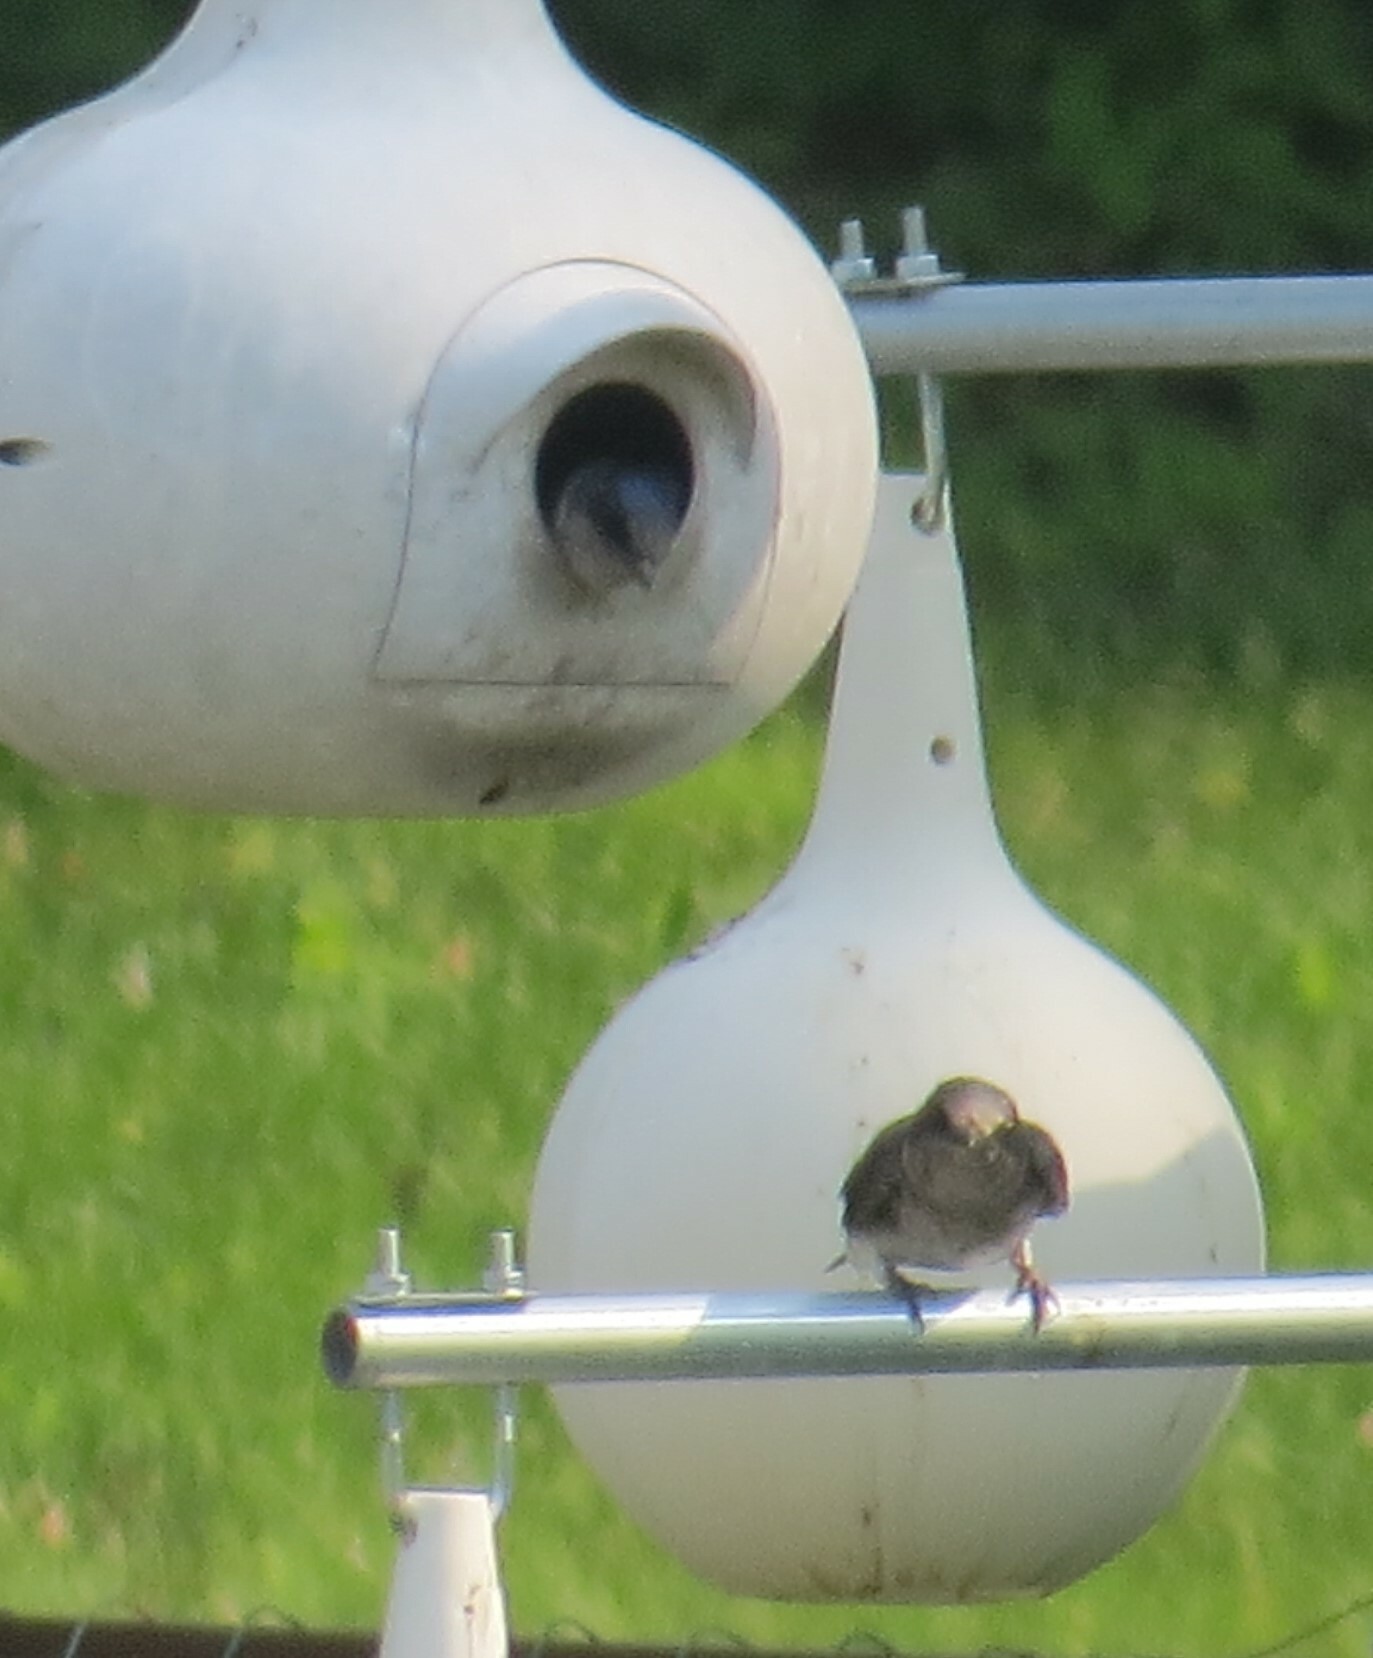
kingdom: Animalia
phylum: Chordata
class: Aves
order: Passeriformes
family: Hirundinidae
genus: Progne
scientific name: Progne subis
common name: Purple martin
